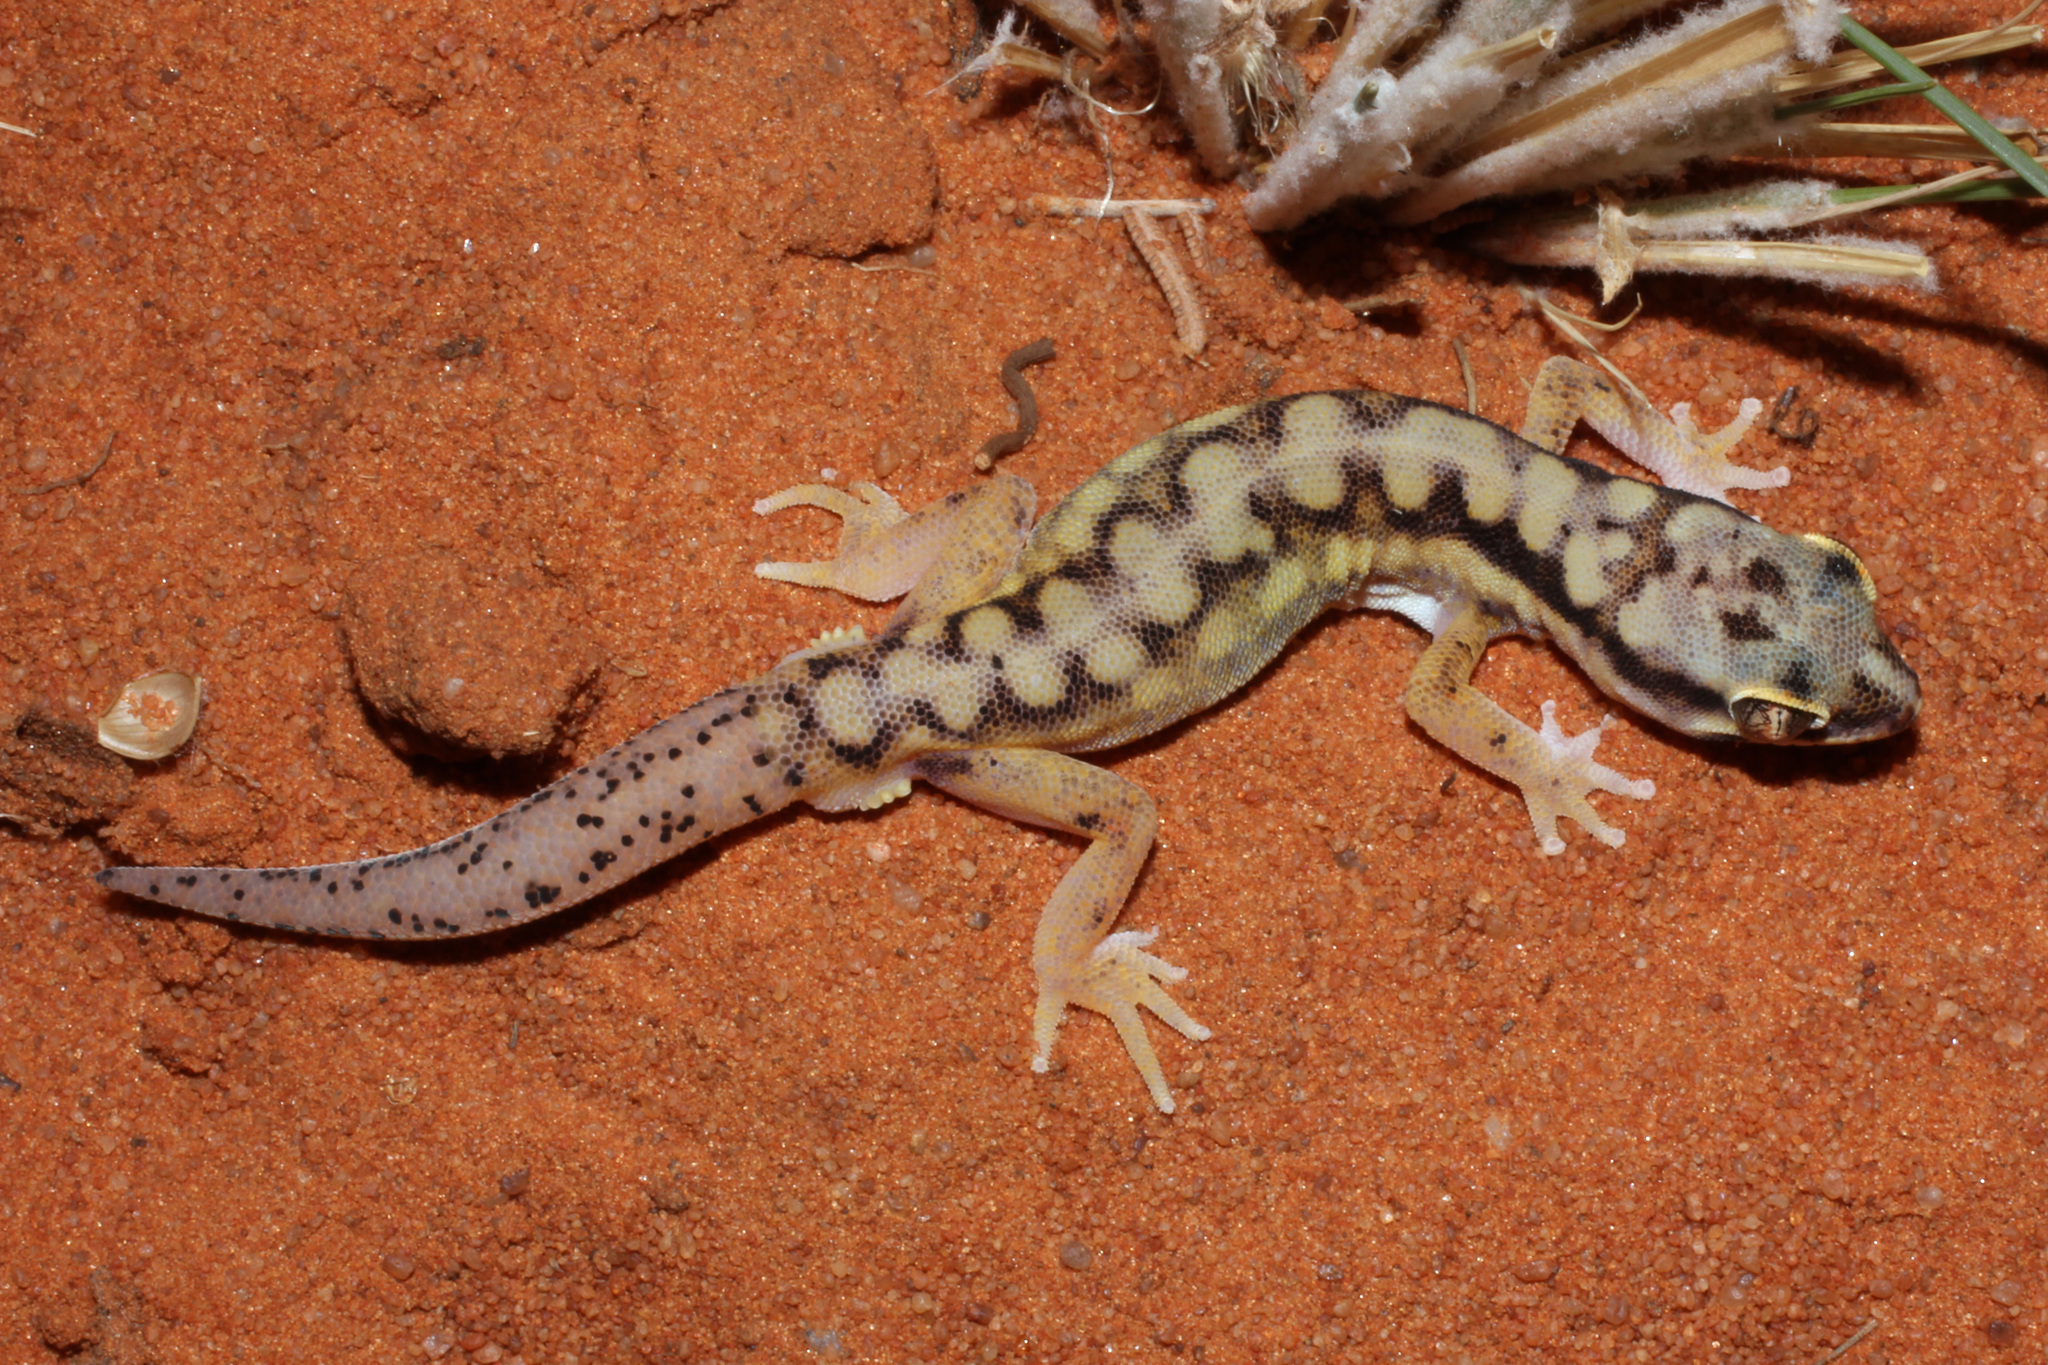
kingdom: Animalia
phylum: Chordata
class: Squamata
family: Gekkonidae
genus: Pachydactylus
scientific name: Pachydactylus wahlbergii
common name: Kalahari ground gecko
